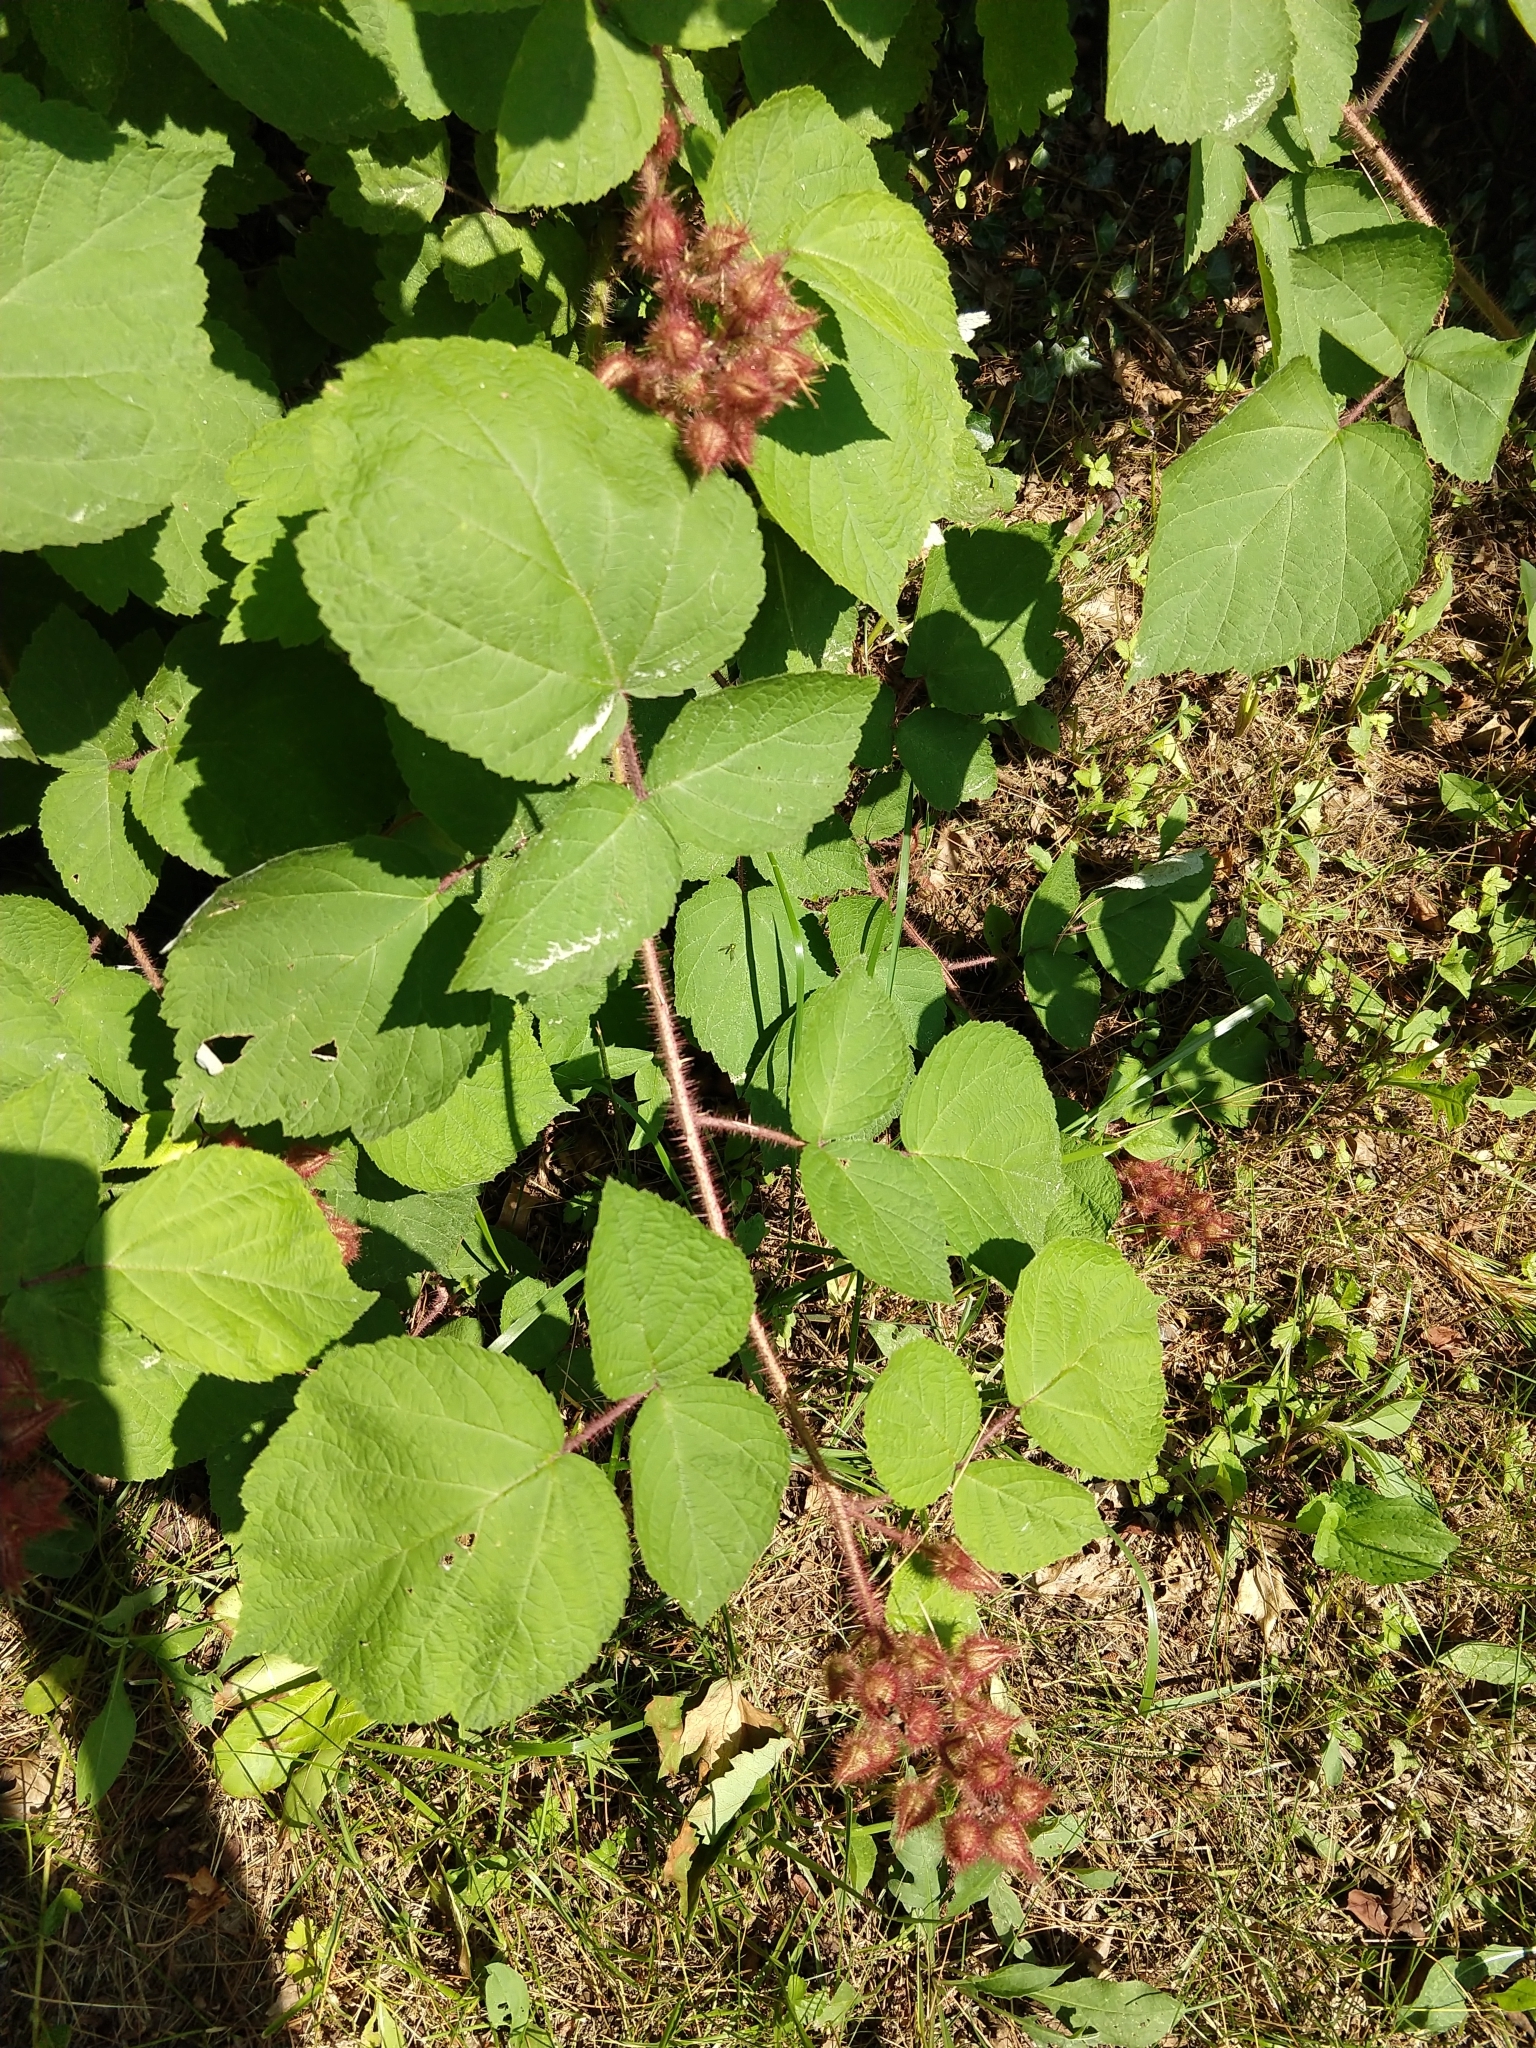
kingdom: Plantae
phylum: Tracheophyta
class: Magnoliopsida
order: Rosales
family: Rosaceae
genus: Rubus
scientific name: Rubus phoenicolasius
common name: Japanese wineberry
